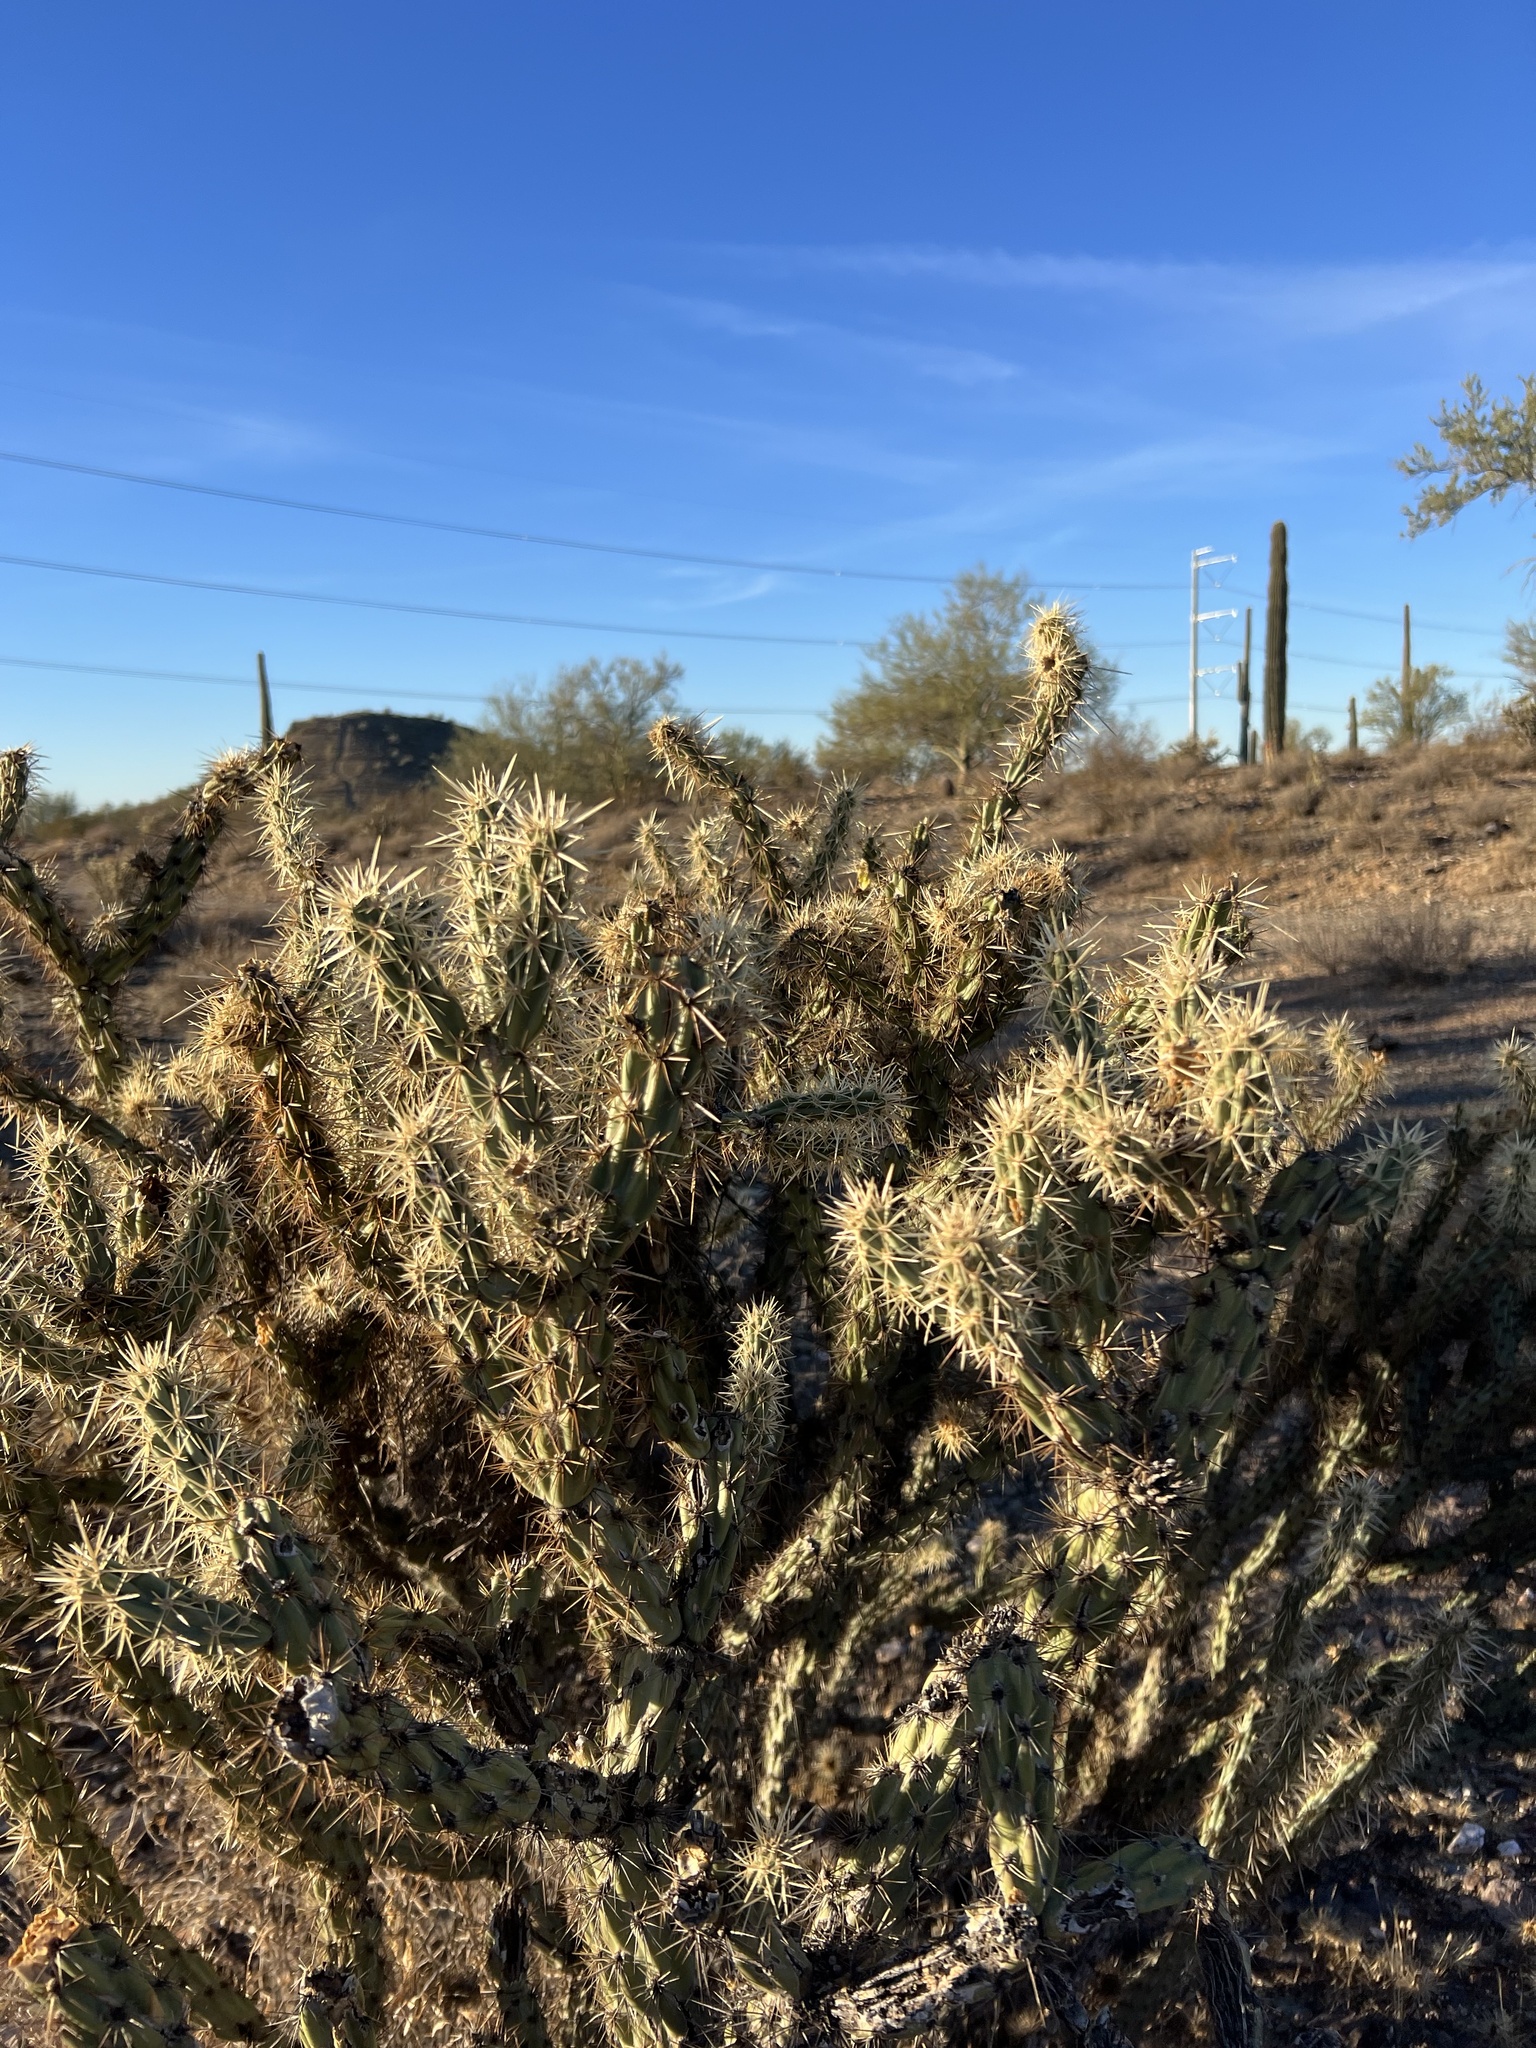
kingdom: Plantae
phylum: Tracheophyta
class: Magnoliopsida
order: Caryophyllales
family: Cactaceae
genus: Cylindropuntia
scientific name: Cylindropuntia acanthocarpa
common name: Buckhorn cholla
